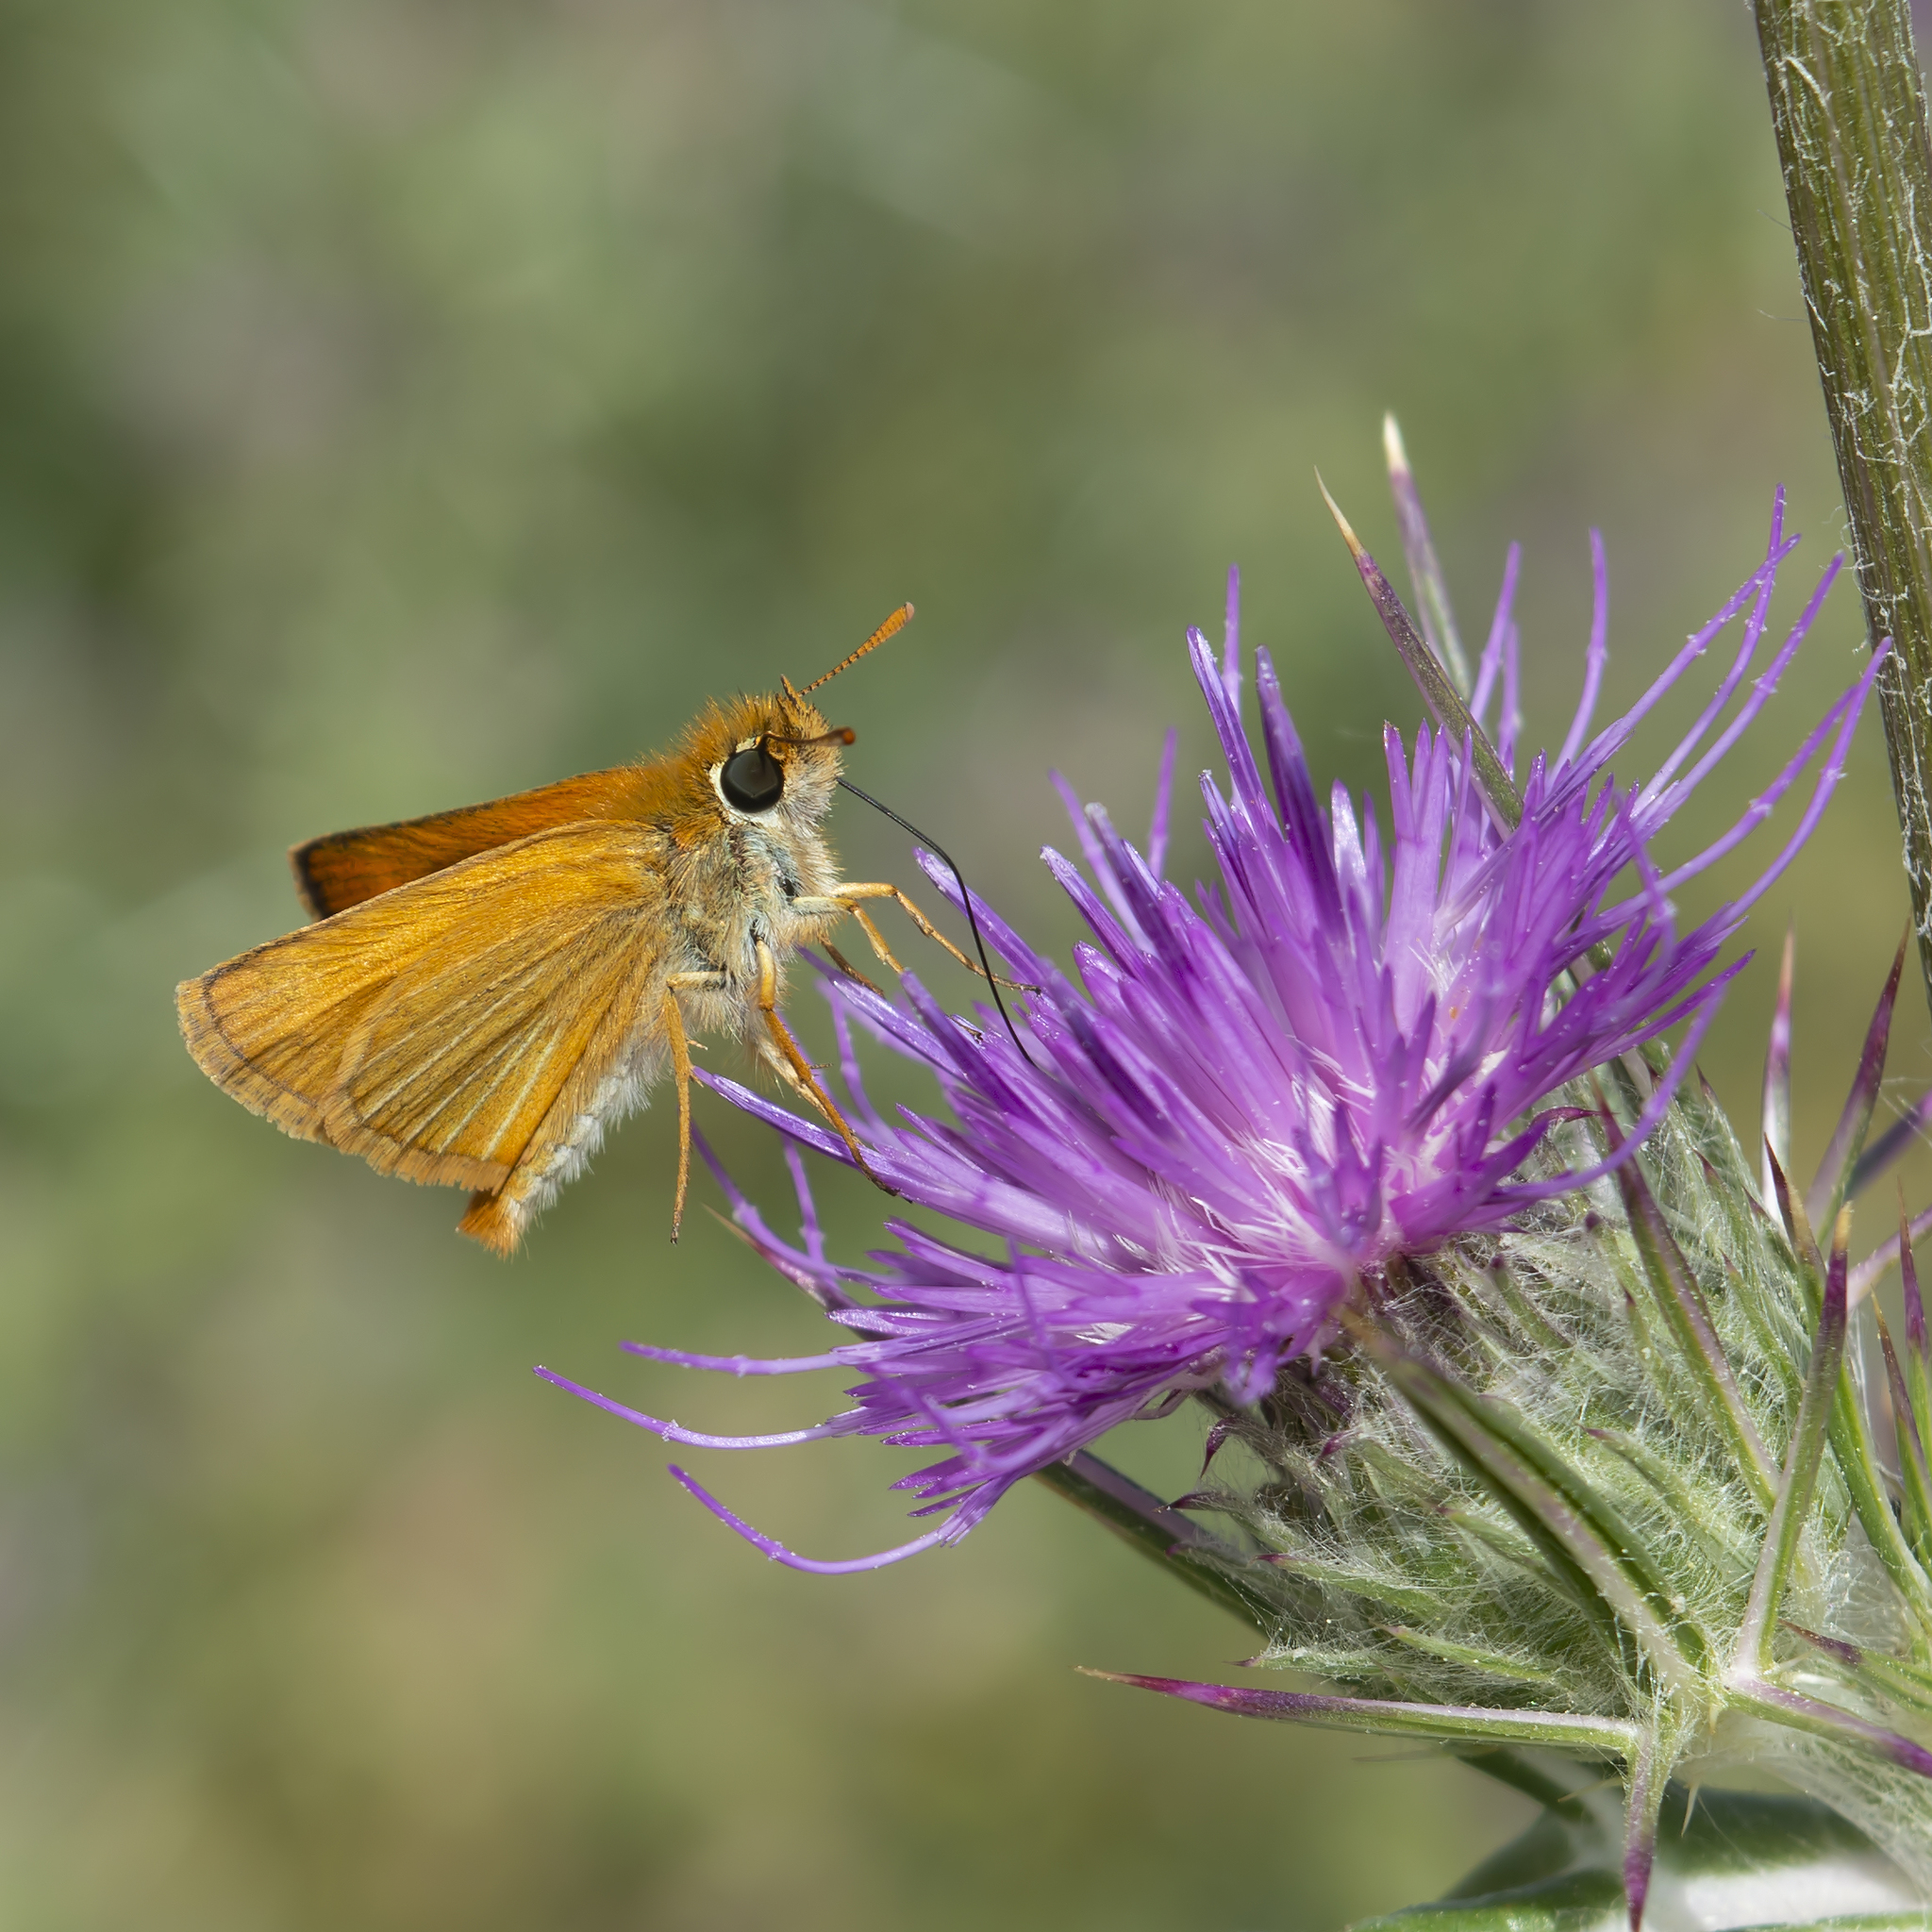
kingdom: Animalia
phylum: Arthropoda
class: Insecta
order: Lepidoptera
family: Hesperiidae
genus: Thymelicus
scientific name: Thymelicus acteon
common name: Lulworth skipper
